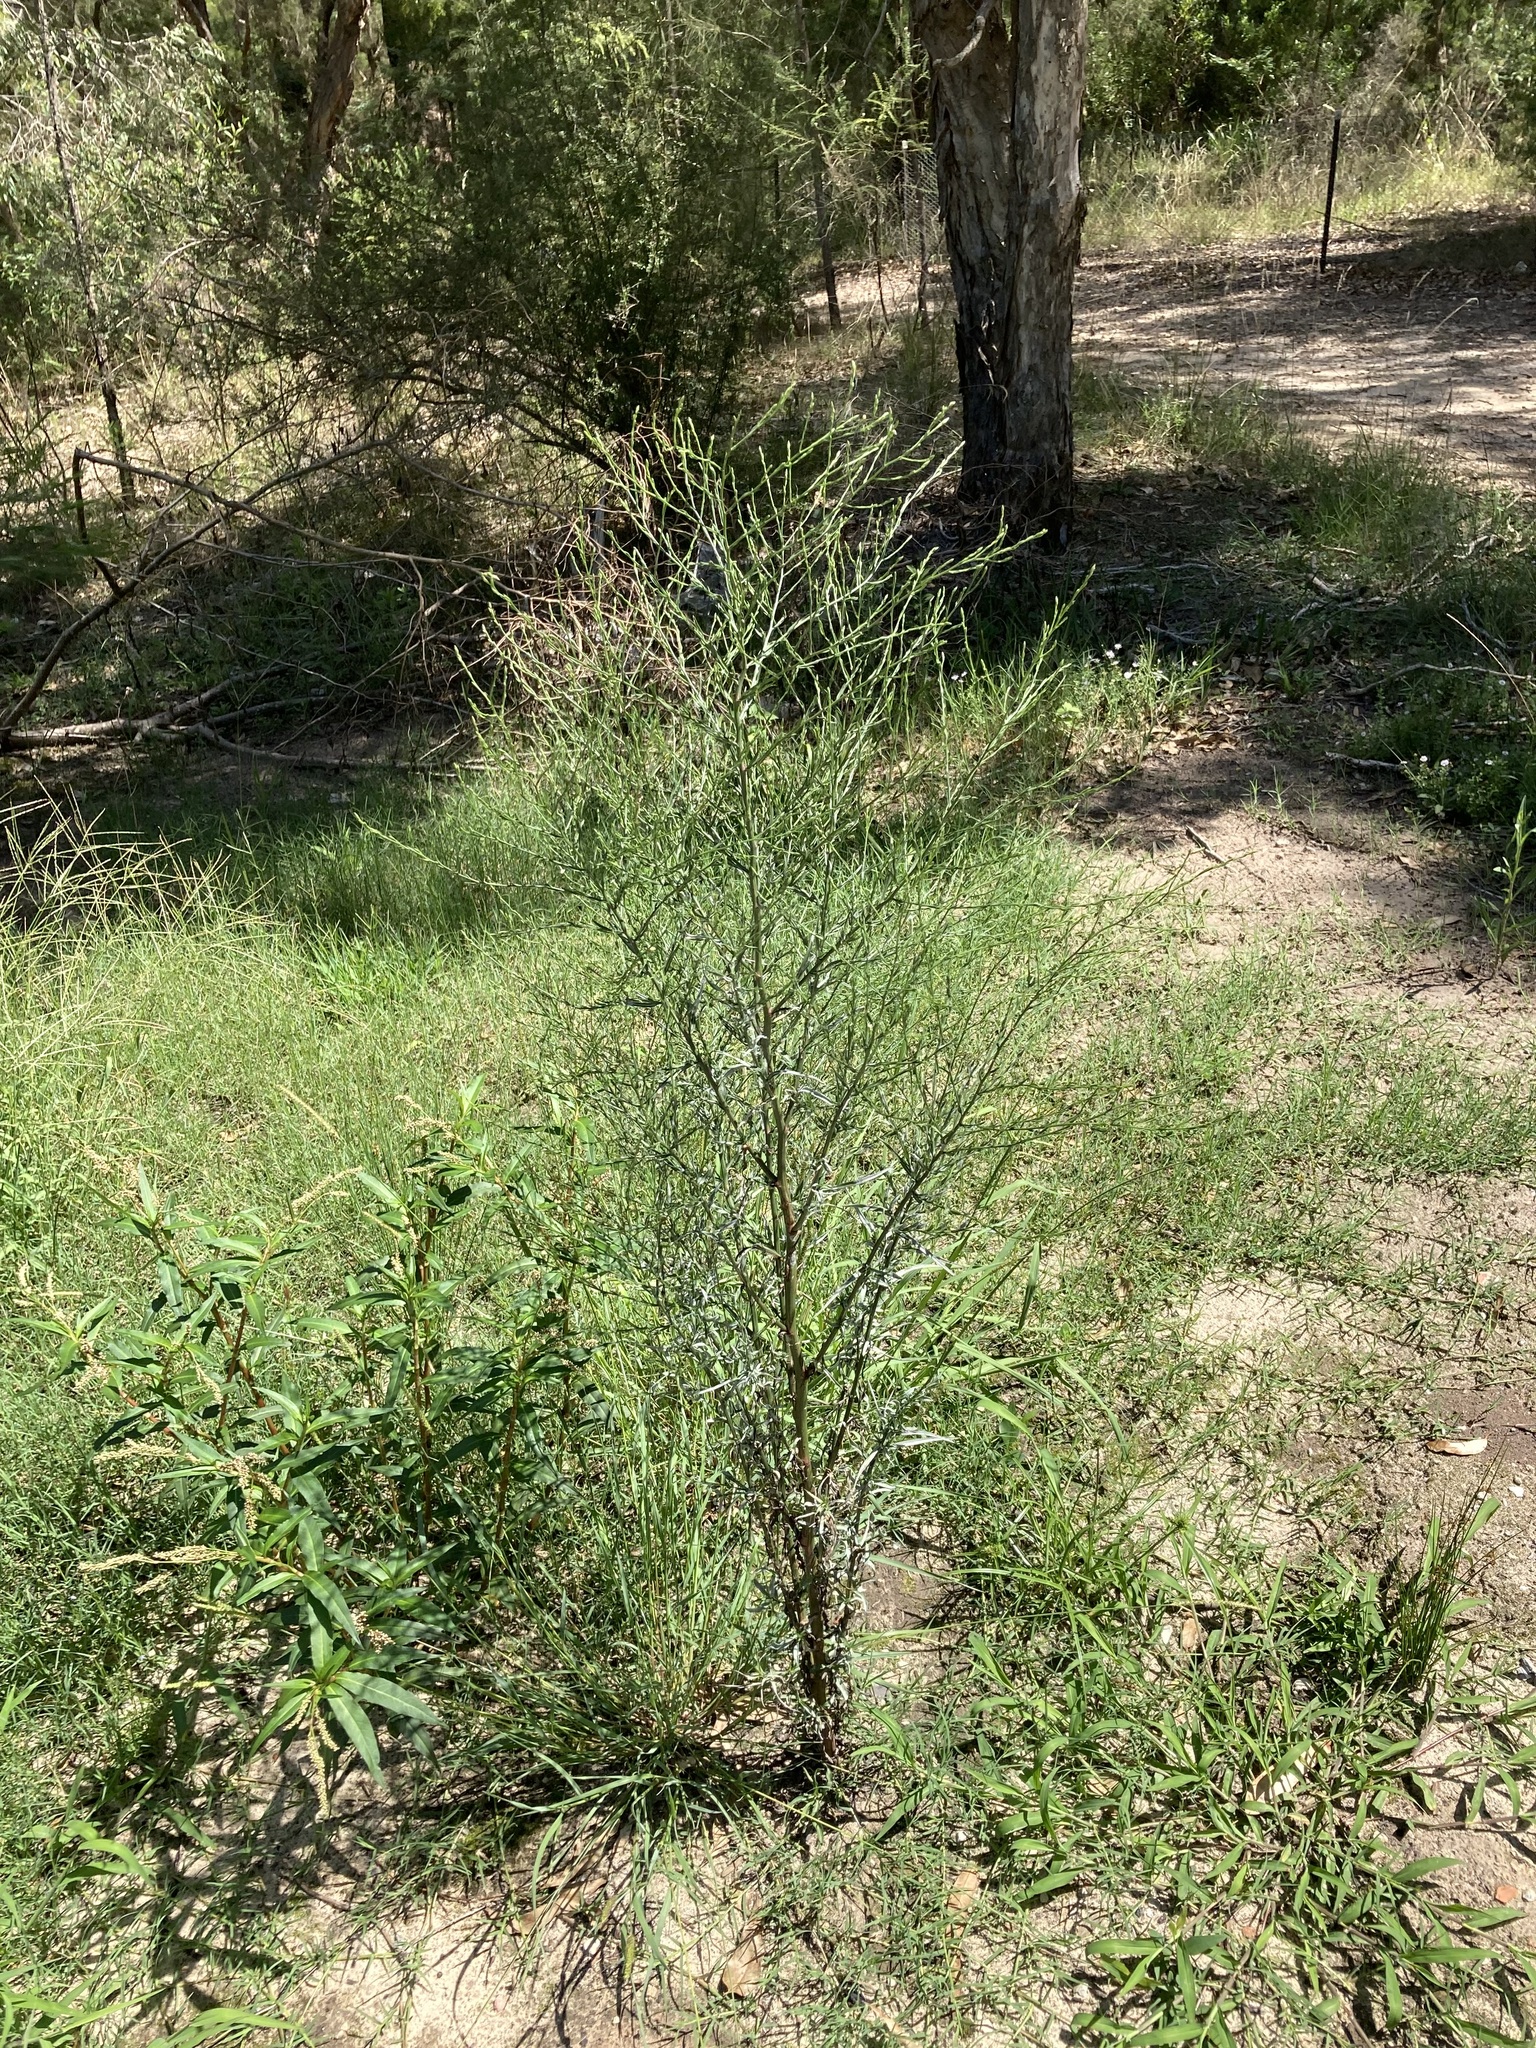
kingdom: Plantae
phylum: Tracheophyta
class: Magnoliopsida
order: Asterales
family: Asteraceae
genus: Symphyotrichum
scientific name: Symphyotrichum subulatum
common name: Annual saltmarsh aster
